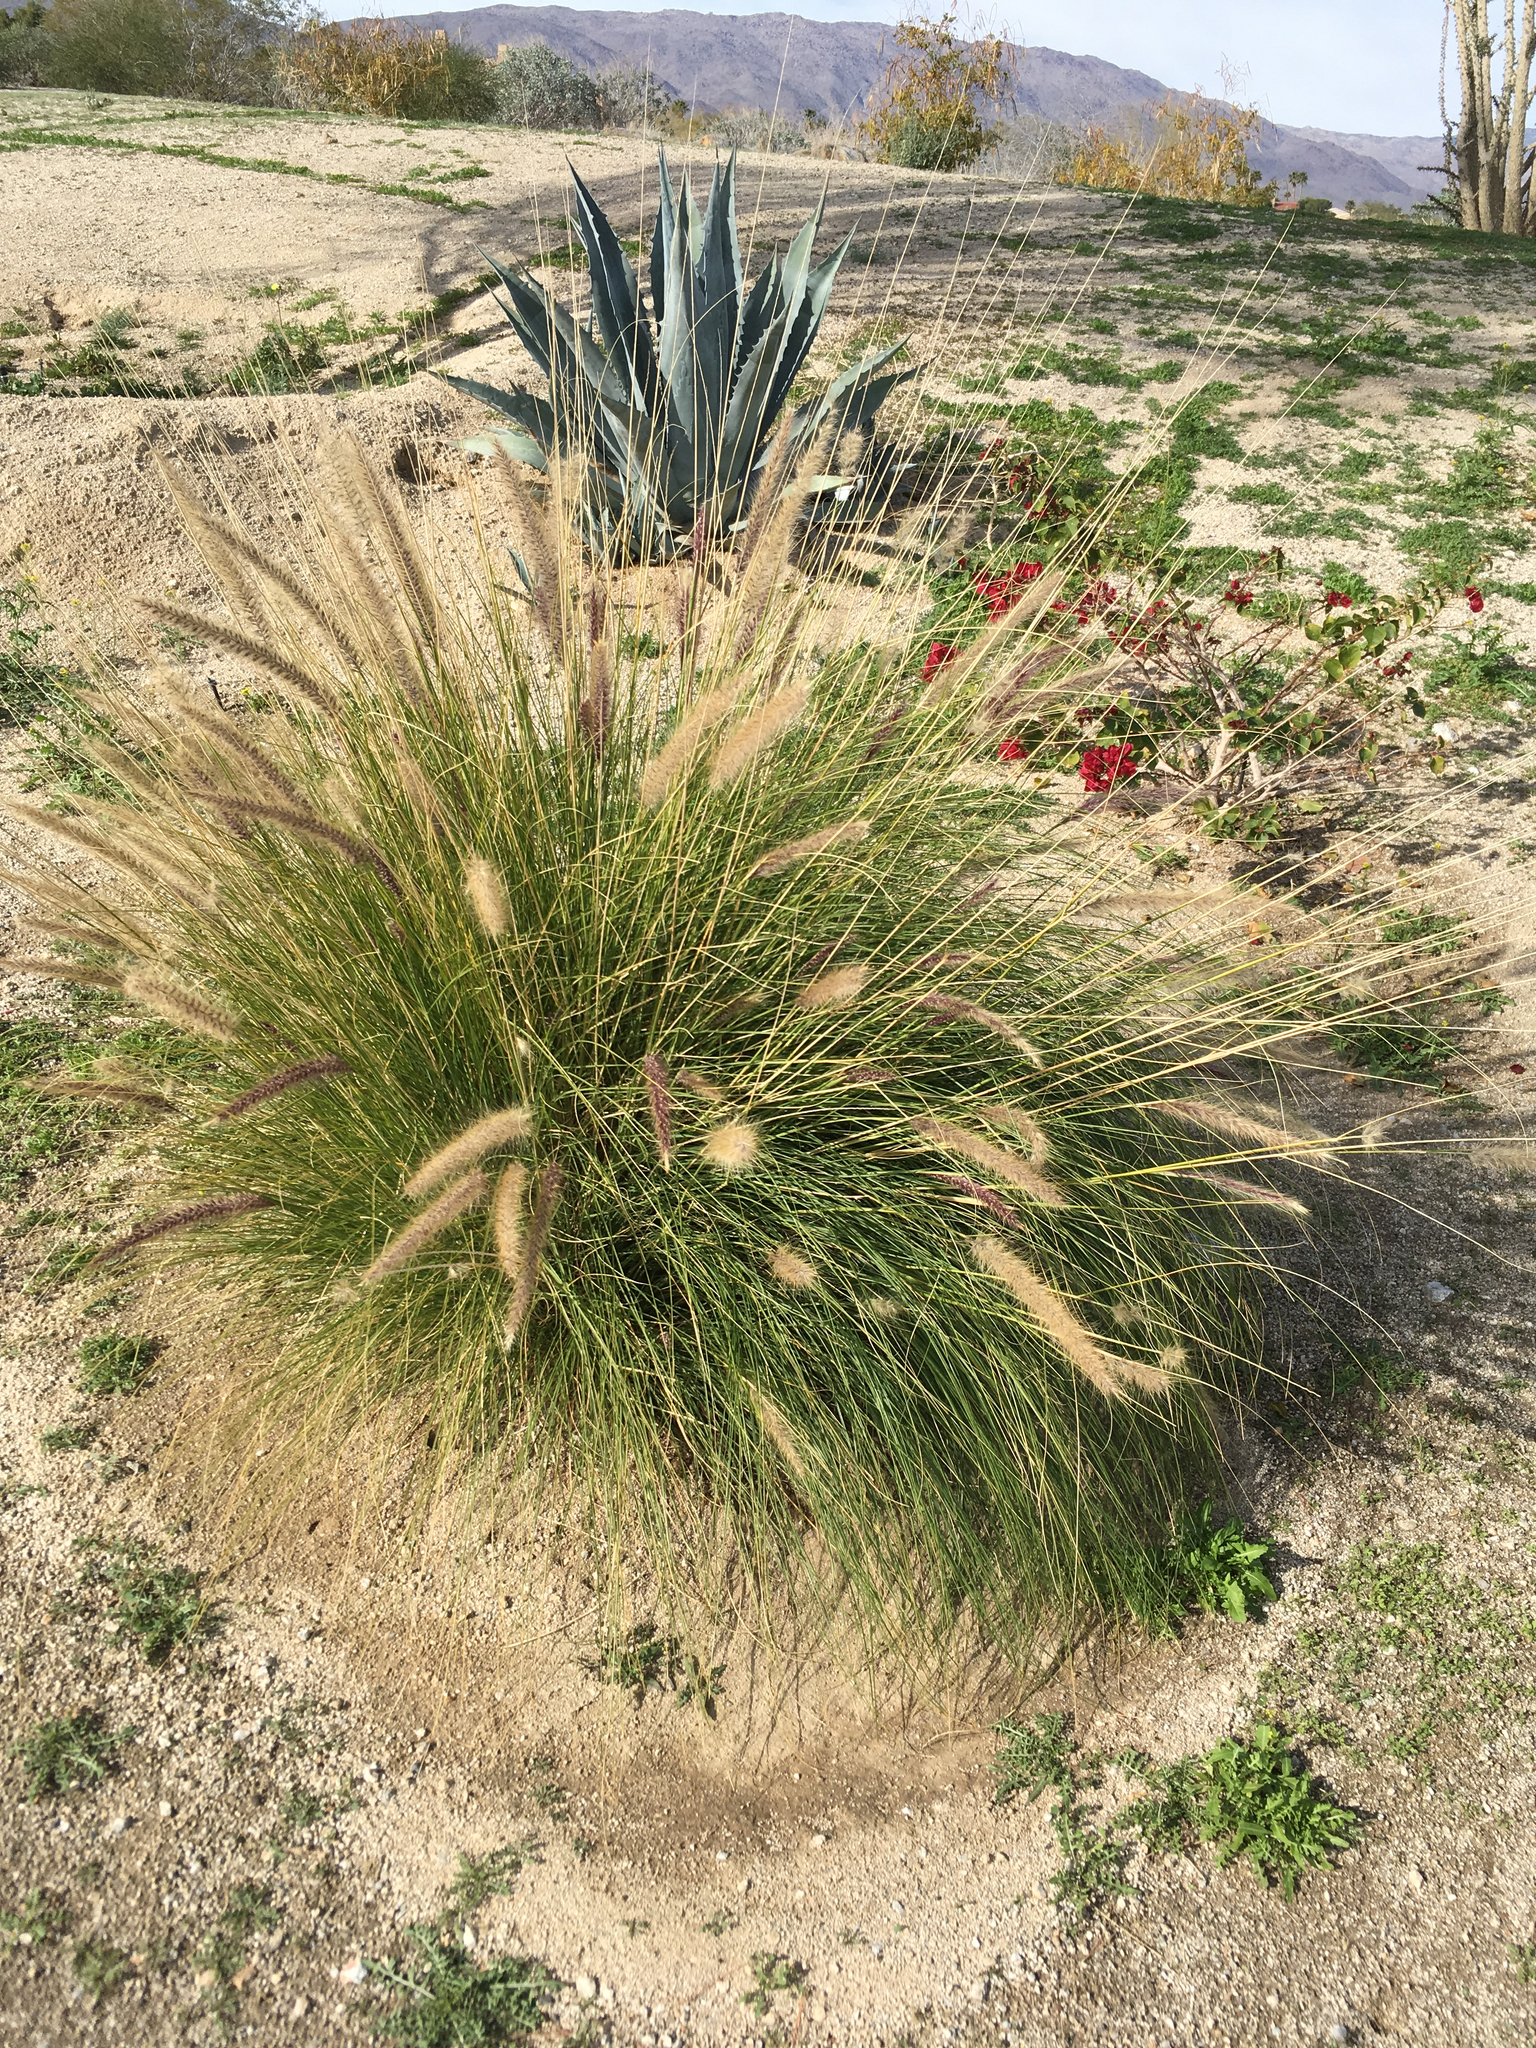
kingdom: Plantae
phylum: Tracheophyta
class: Liliopsida
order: Poales
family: Poaceae
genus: Cenchrus
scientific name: Cenchrus setaceus
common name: Crimson fountaingrass
